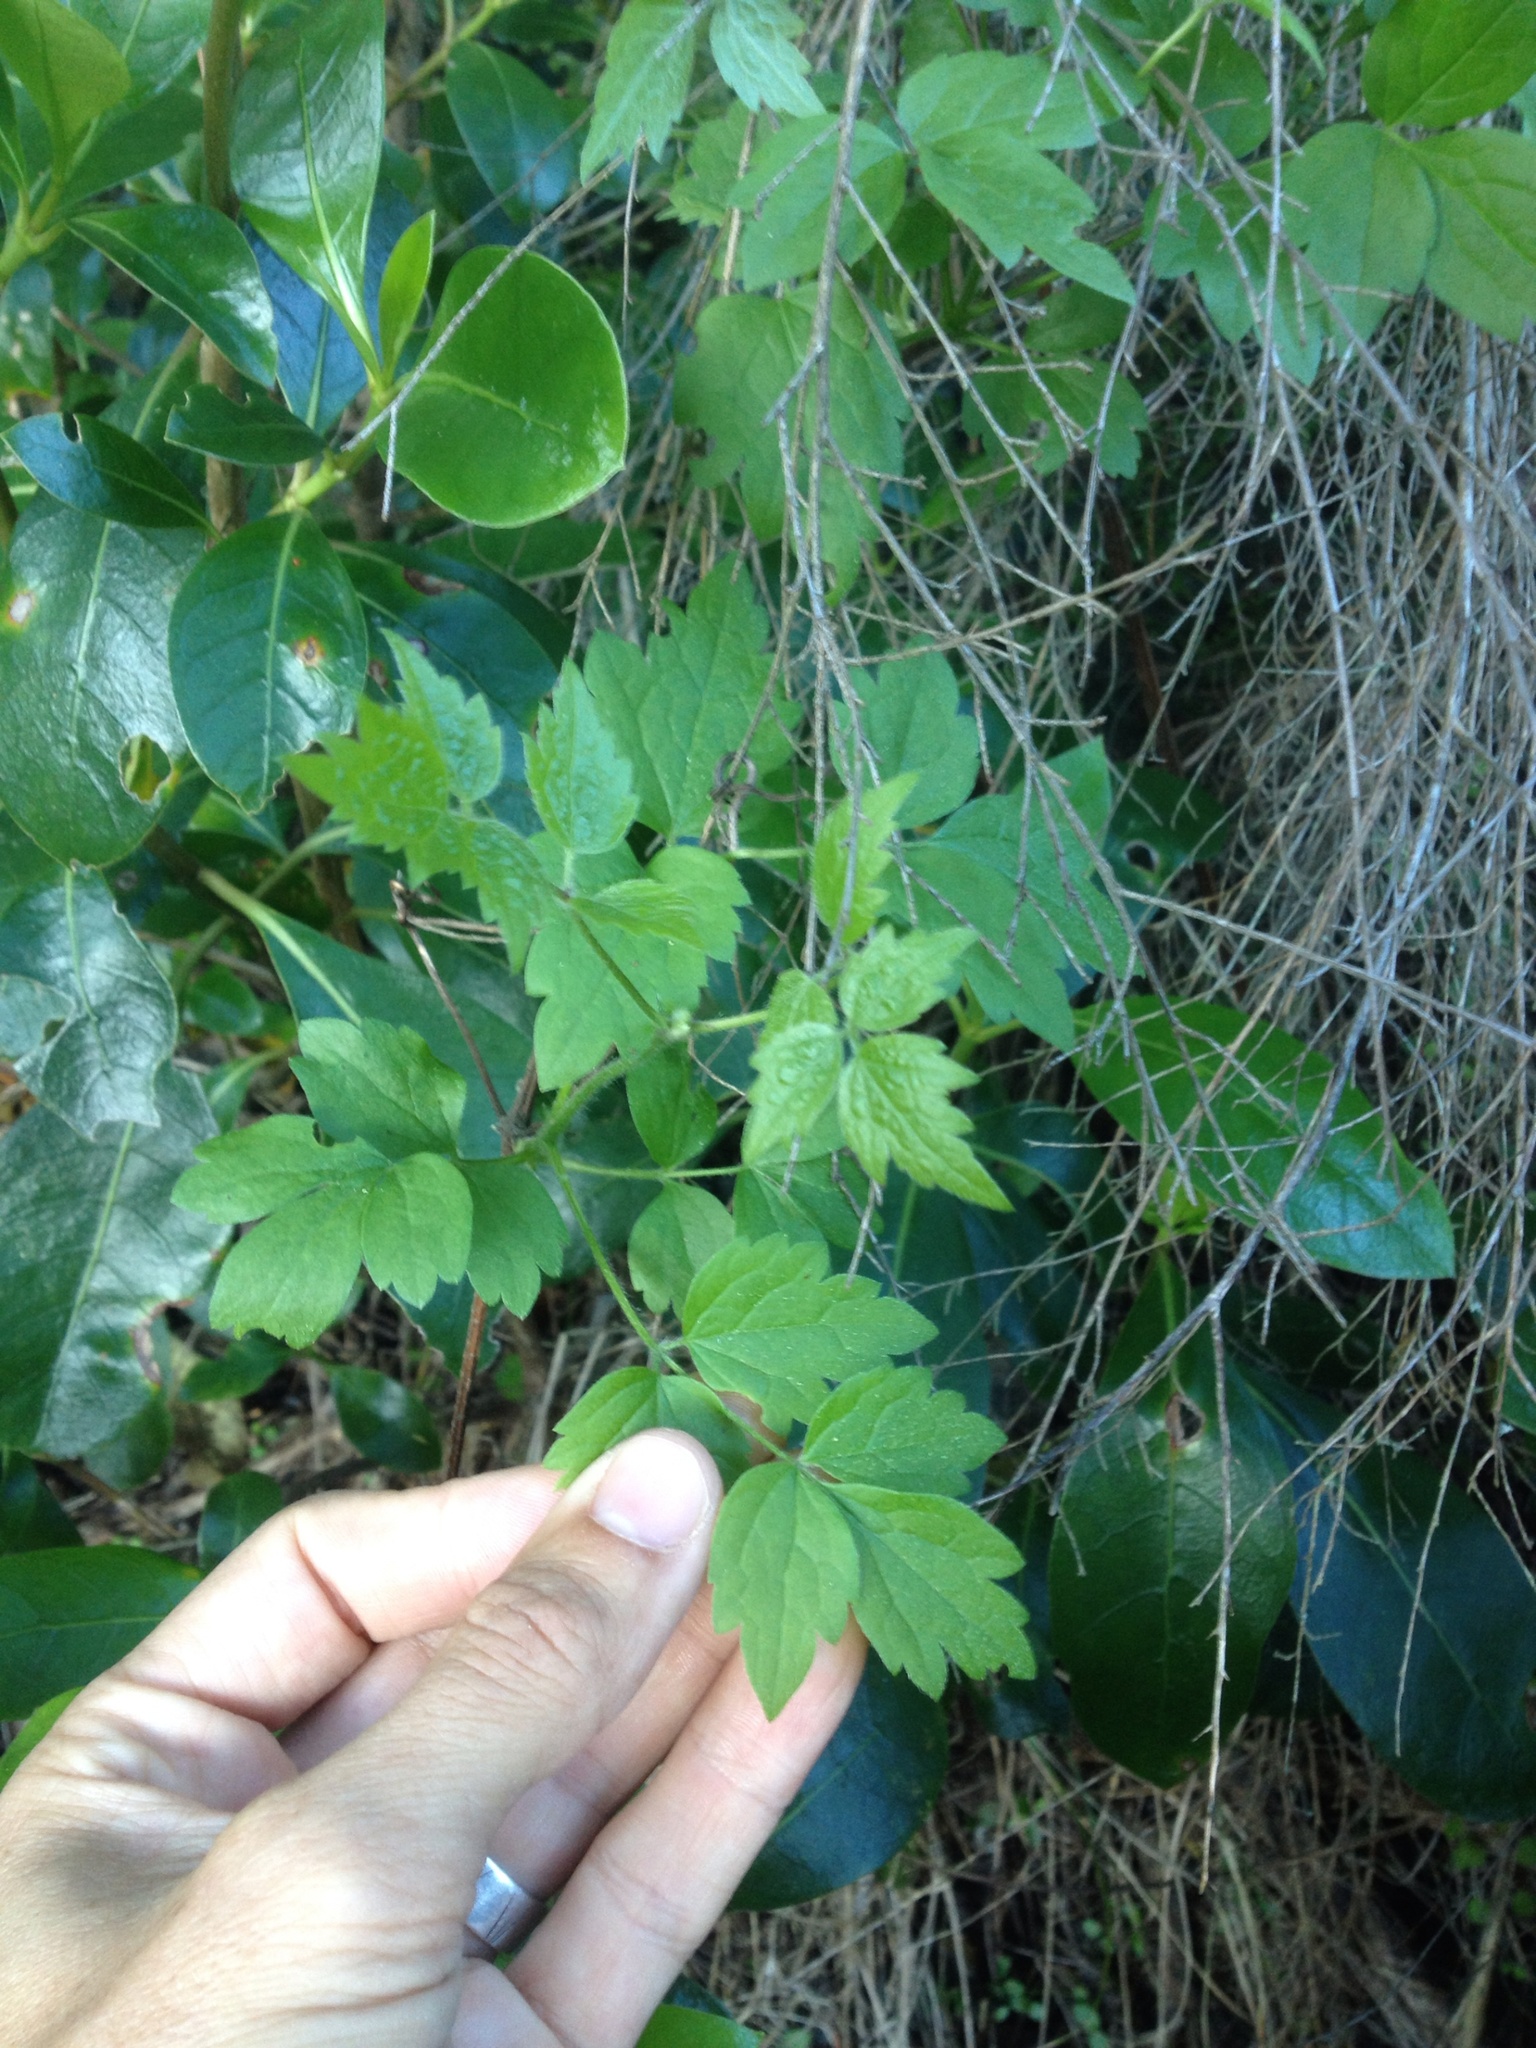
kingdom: Plantae
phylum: Tracheophyta
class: Magnoliopsida
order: Ranunculales
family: Ranunculaceae
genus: Clematis
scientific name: Clematis vitalba
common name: Evergreen clematis
